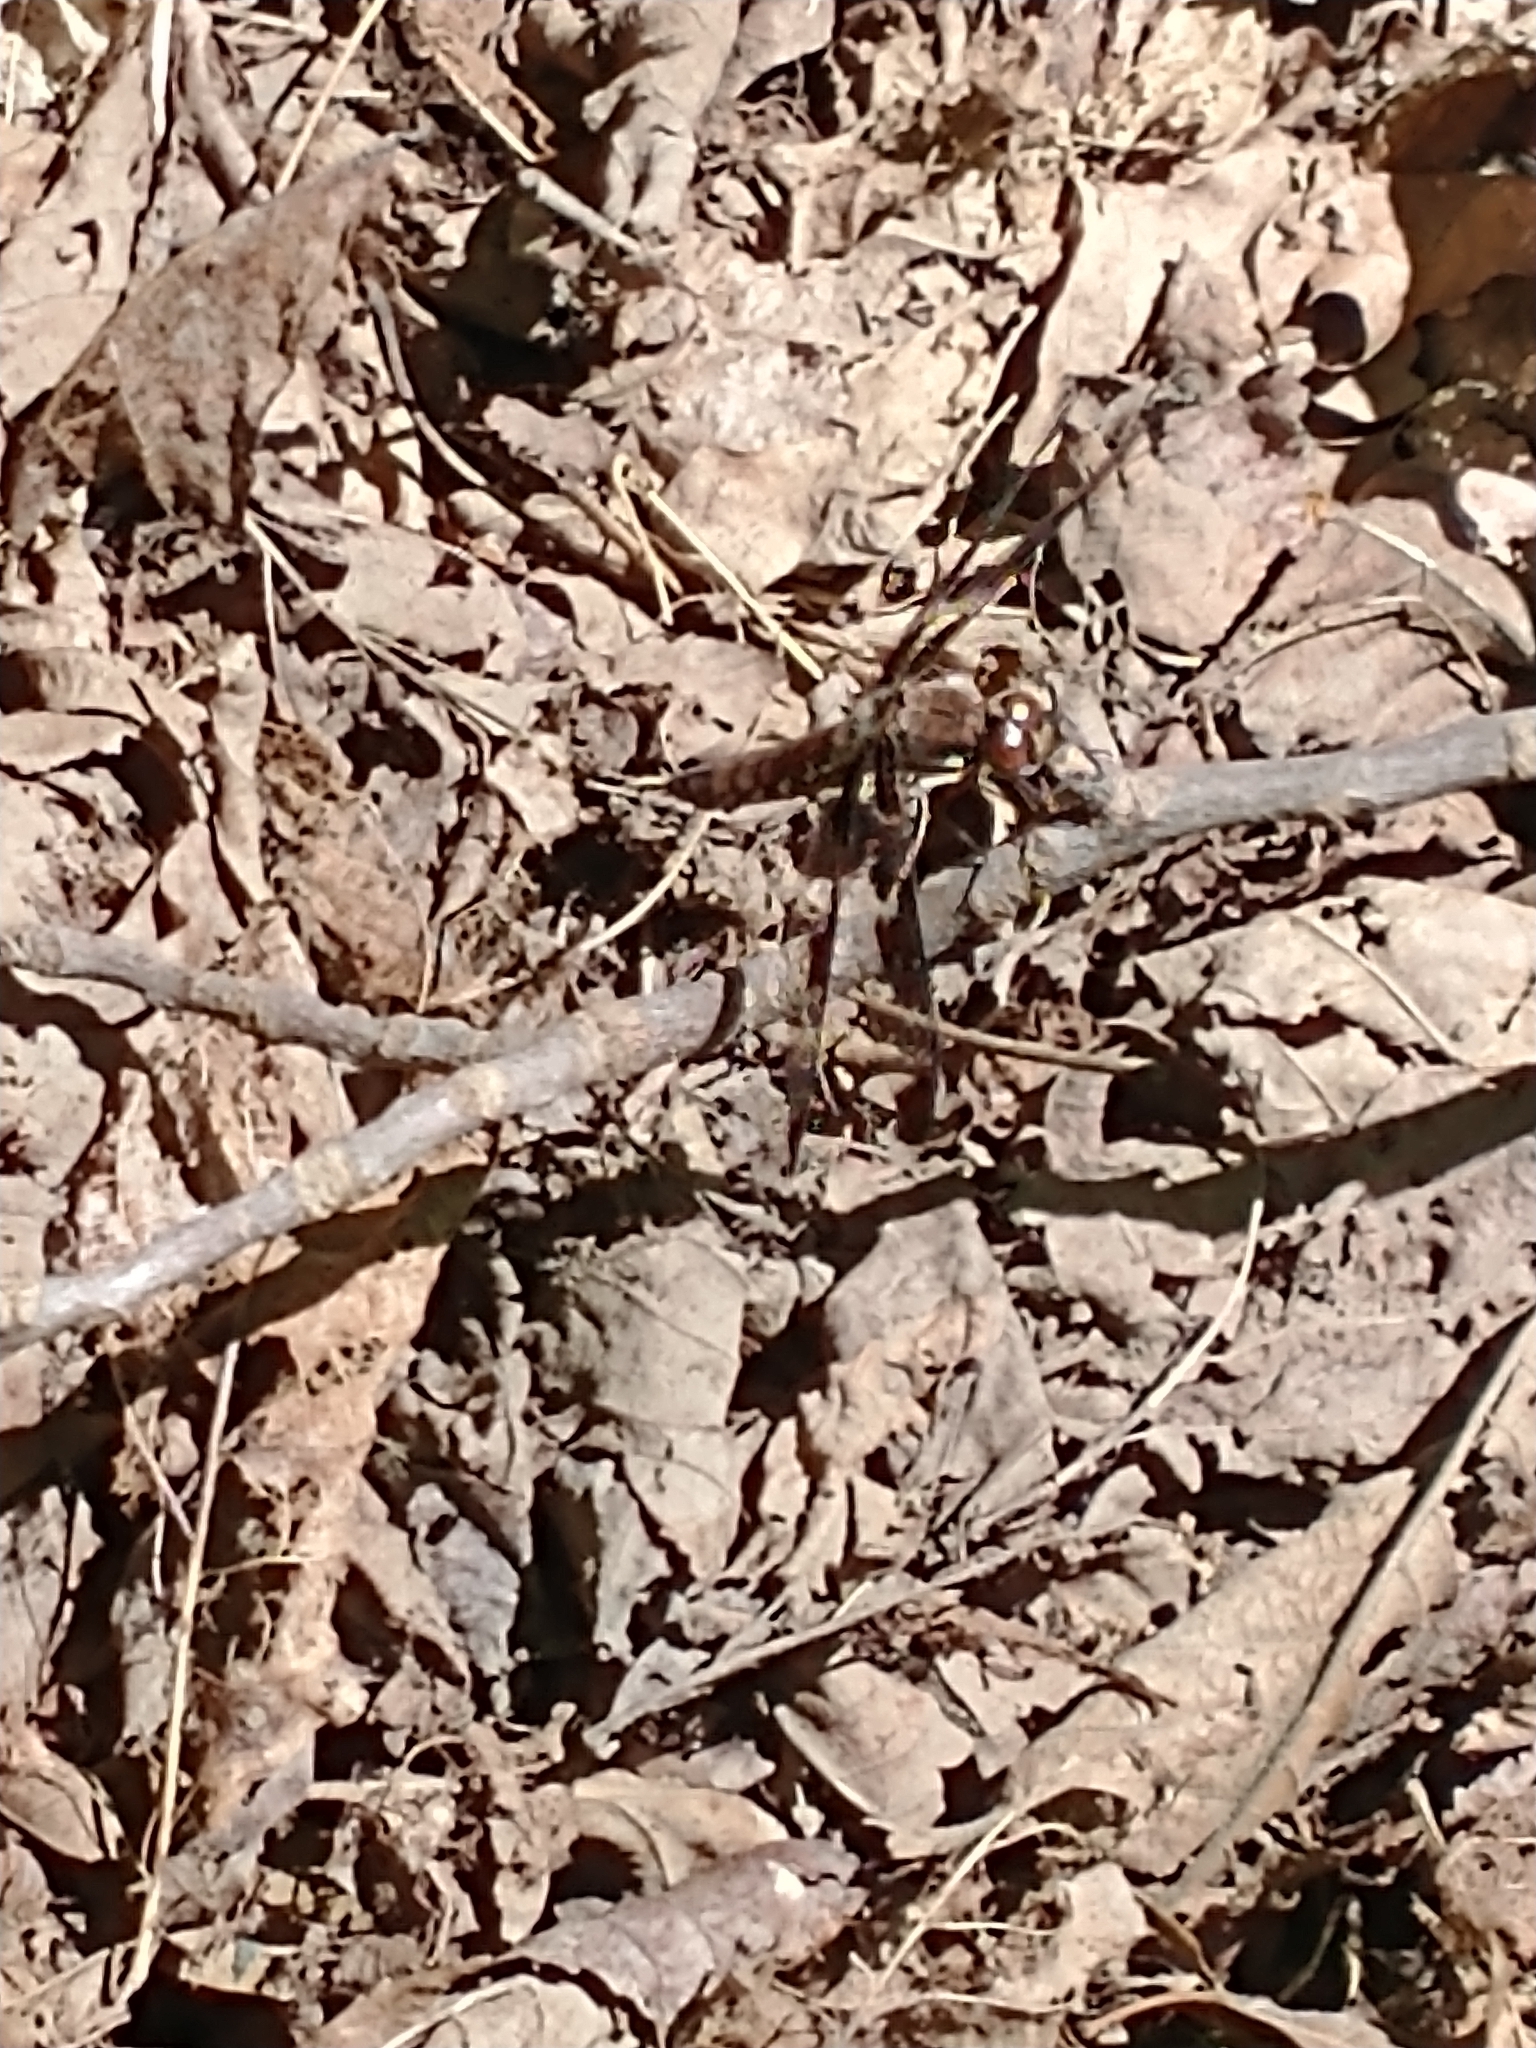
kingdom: Animalia
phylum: Arthropoda
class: Insecta
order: Odonata
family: Libellulidae
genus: Plathemis
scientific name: Plathemis lydia
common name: Common whitetail
